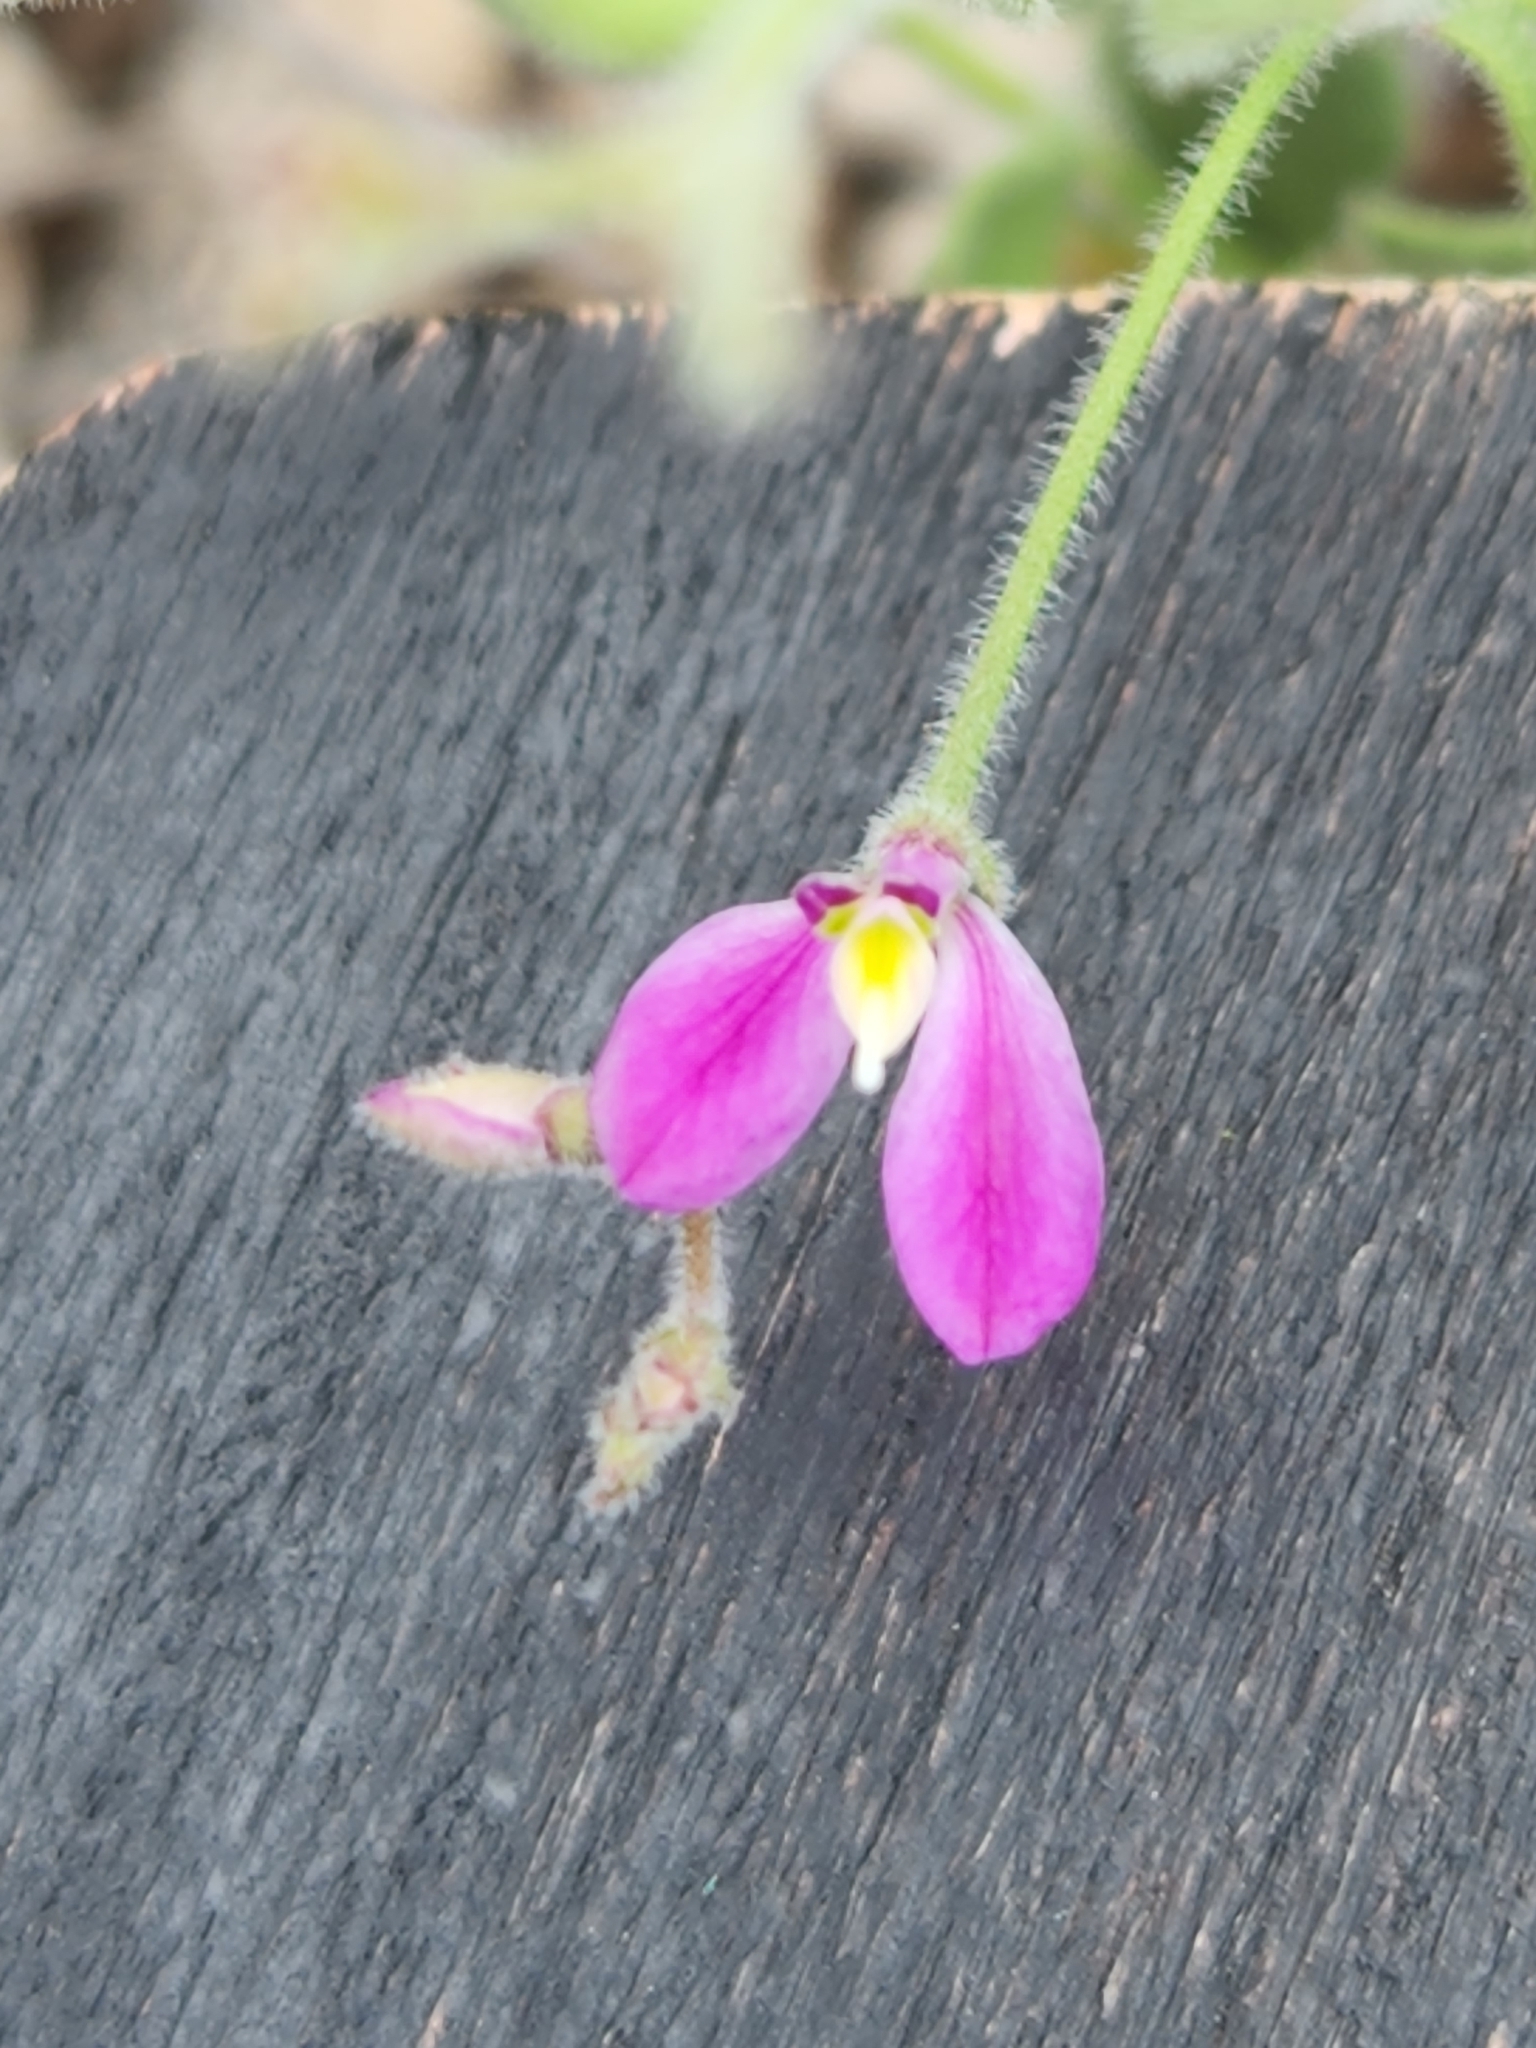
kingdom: Plantae
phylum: Tracheophyta
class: Magnoliopsida
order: Fabales
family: Polygalaceae
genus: Rhinotropis
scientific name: Rhinotropis lindheimeri
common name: Shrubby milkwort
